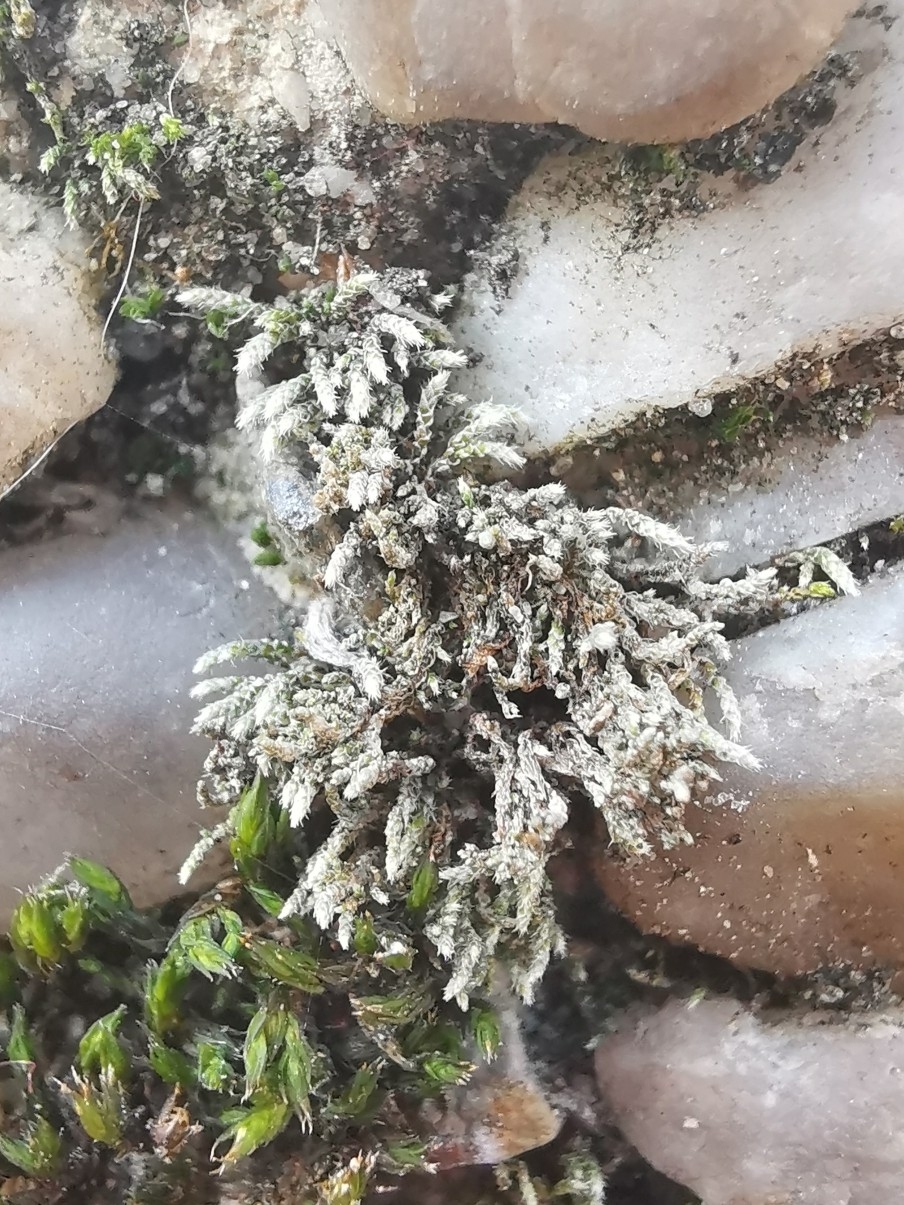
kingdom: Plantae
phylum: Bryophyta
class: Bryopsida
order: Bryales
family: Bryaceae
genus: Bryum
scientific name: Bryum argenteum
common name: Silver-moss
